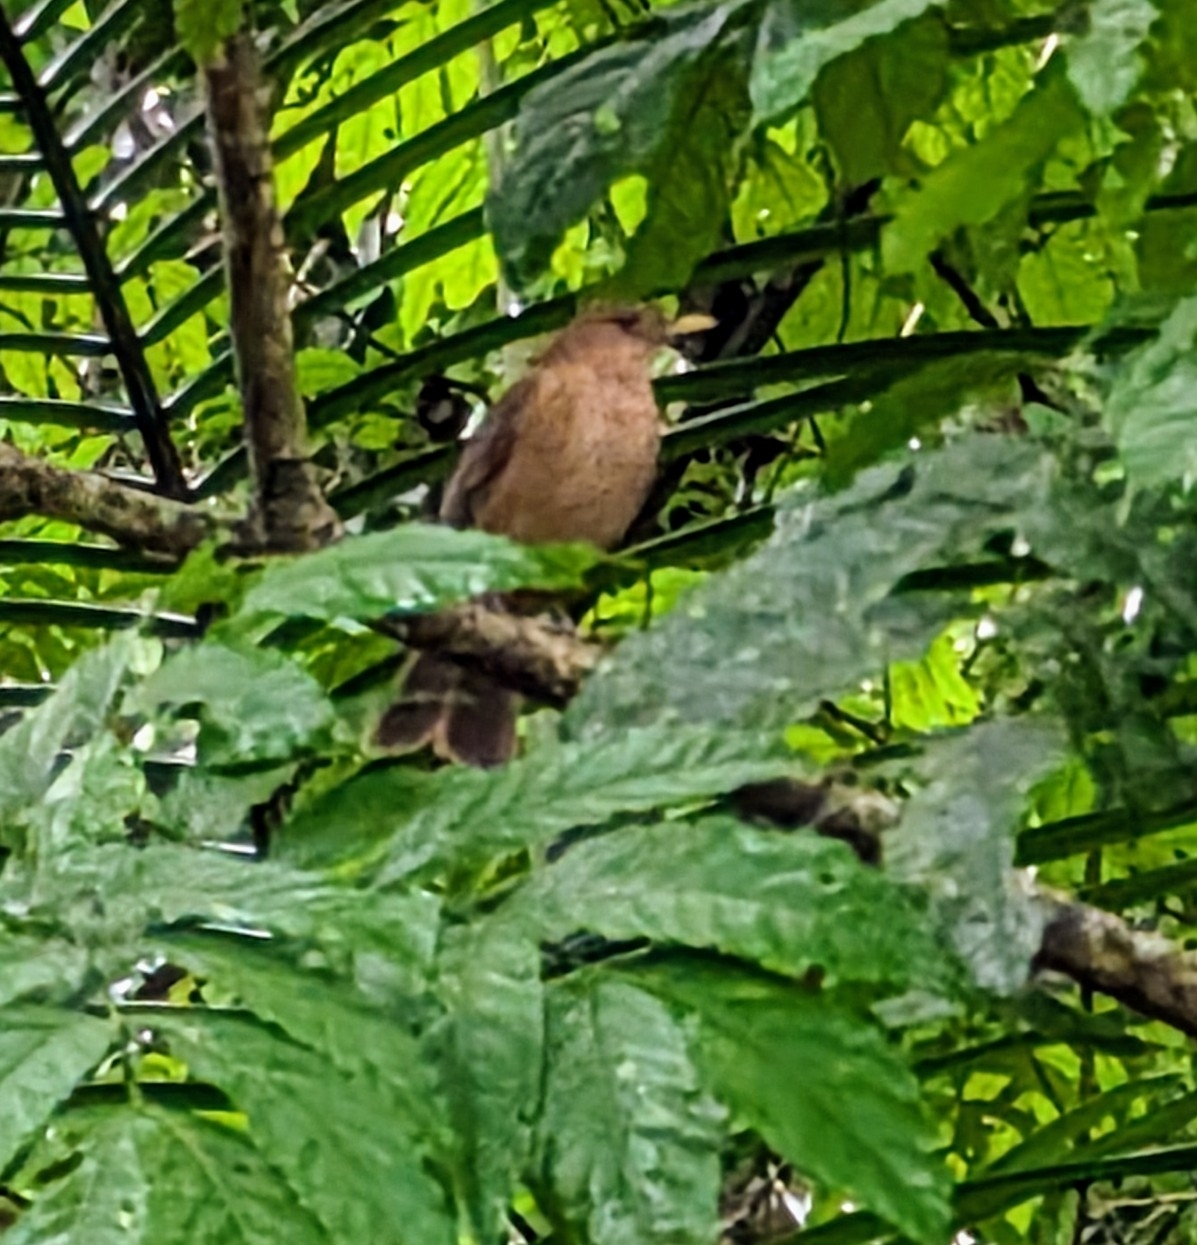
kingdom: Animalia
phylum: Chordata
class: Aves
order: Passeriformes
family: Turdidae
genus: Turdus
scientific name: Turdus grayi
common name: Clay-colored thrush
